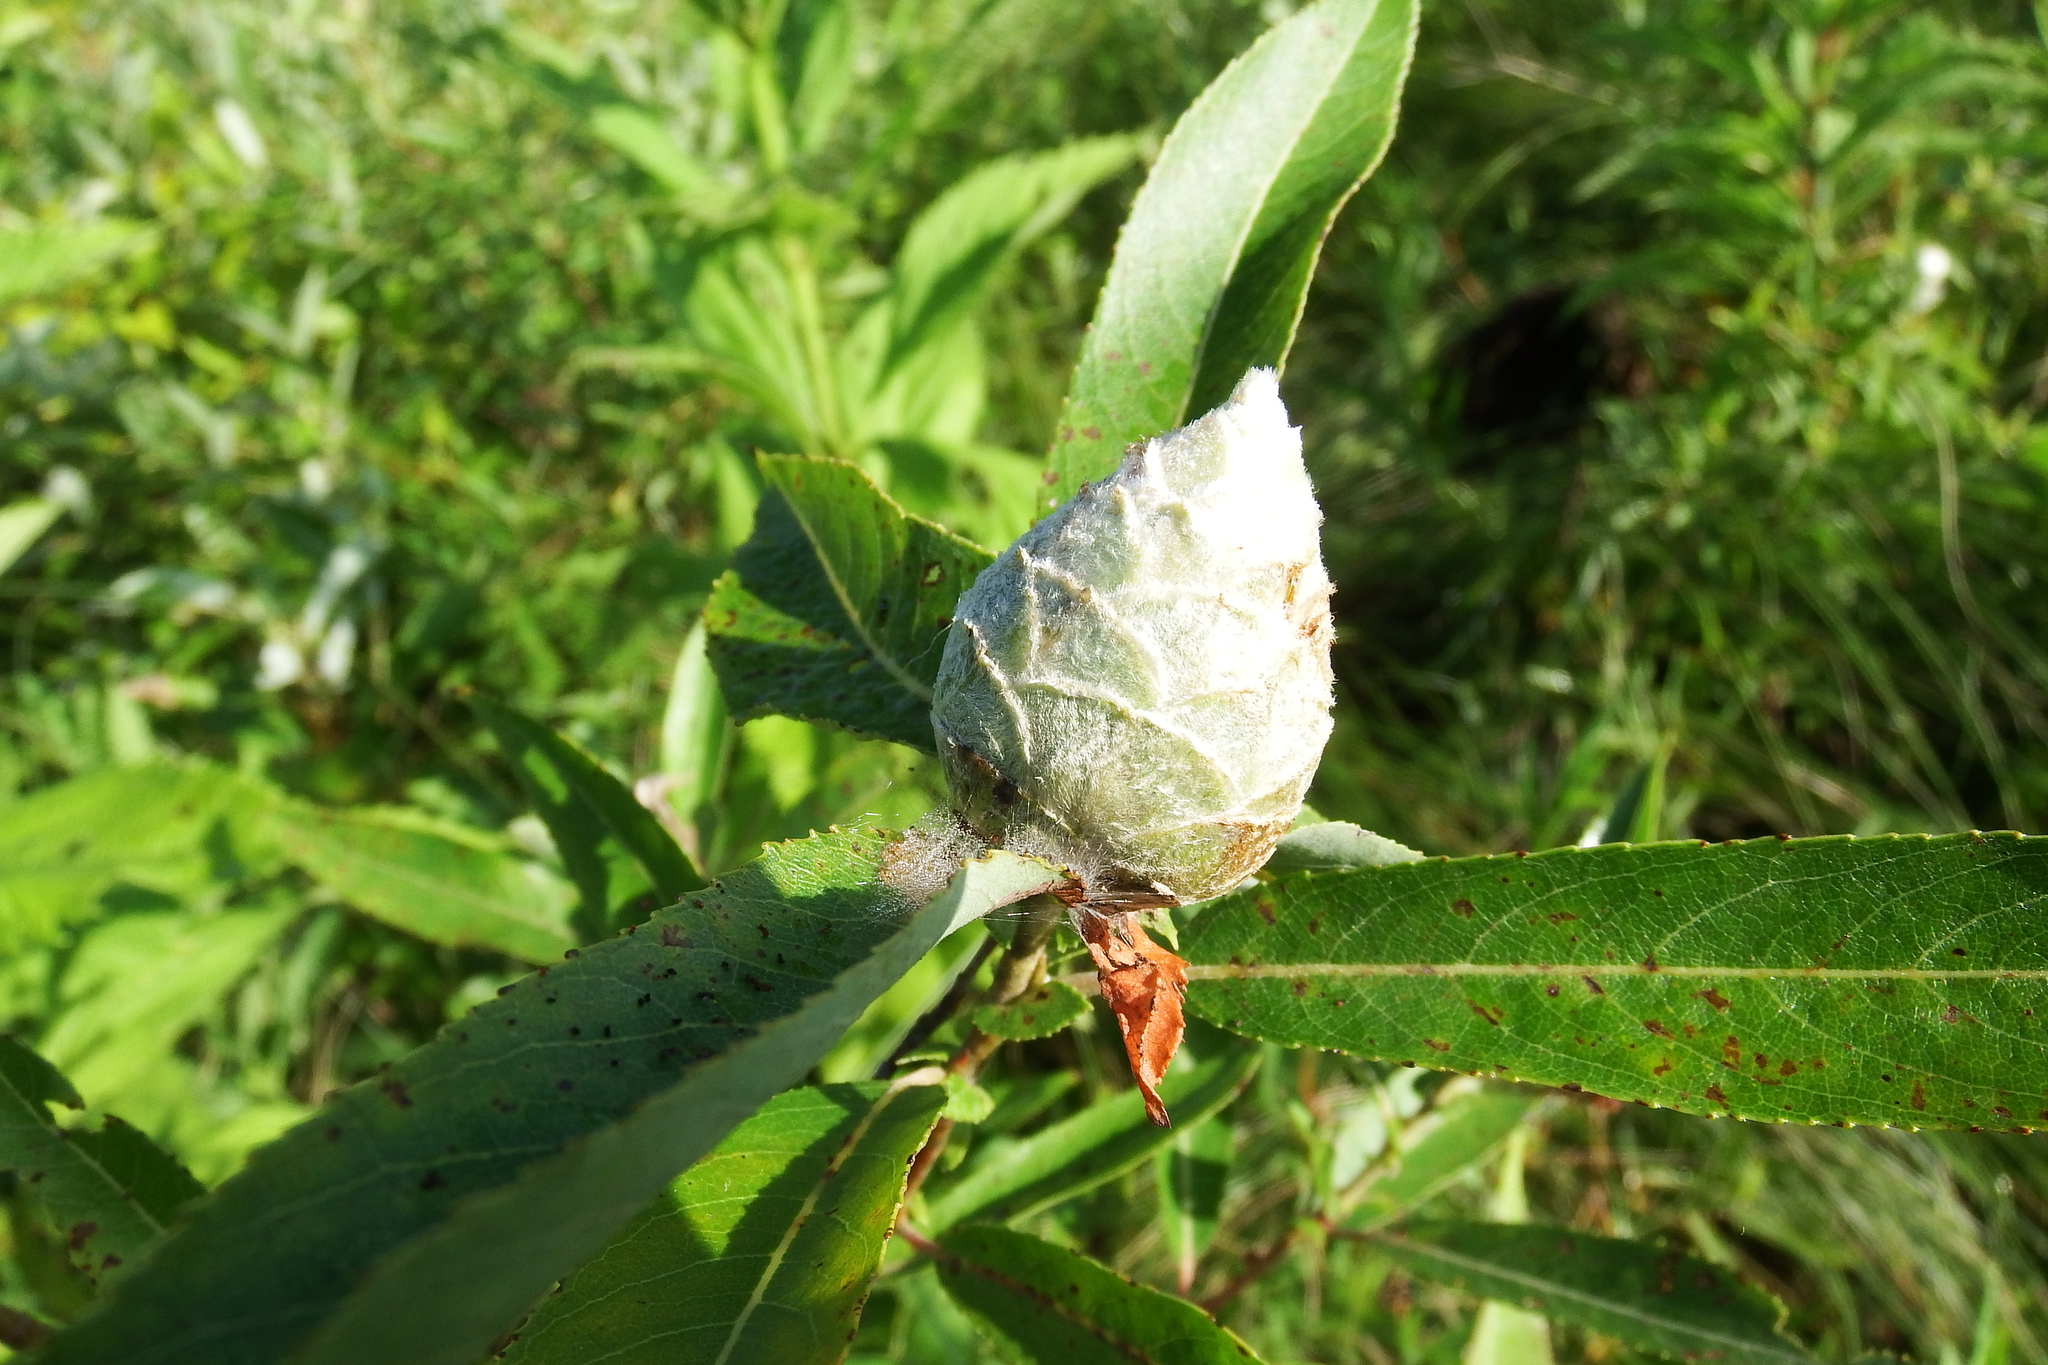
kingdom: Animalia
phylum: Arthropoda
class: Insecta
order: Diptera
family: Cecidomyiidae
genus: Rabdophaga
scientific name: Rabdophaga strobiloides
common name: Willow pinecone gall midge
